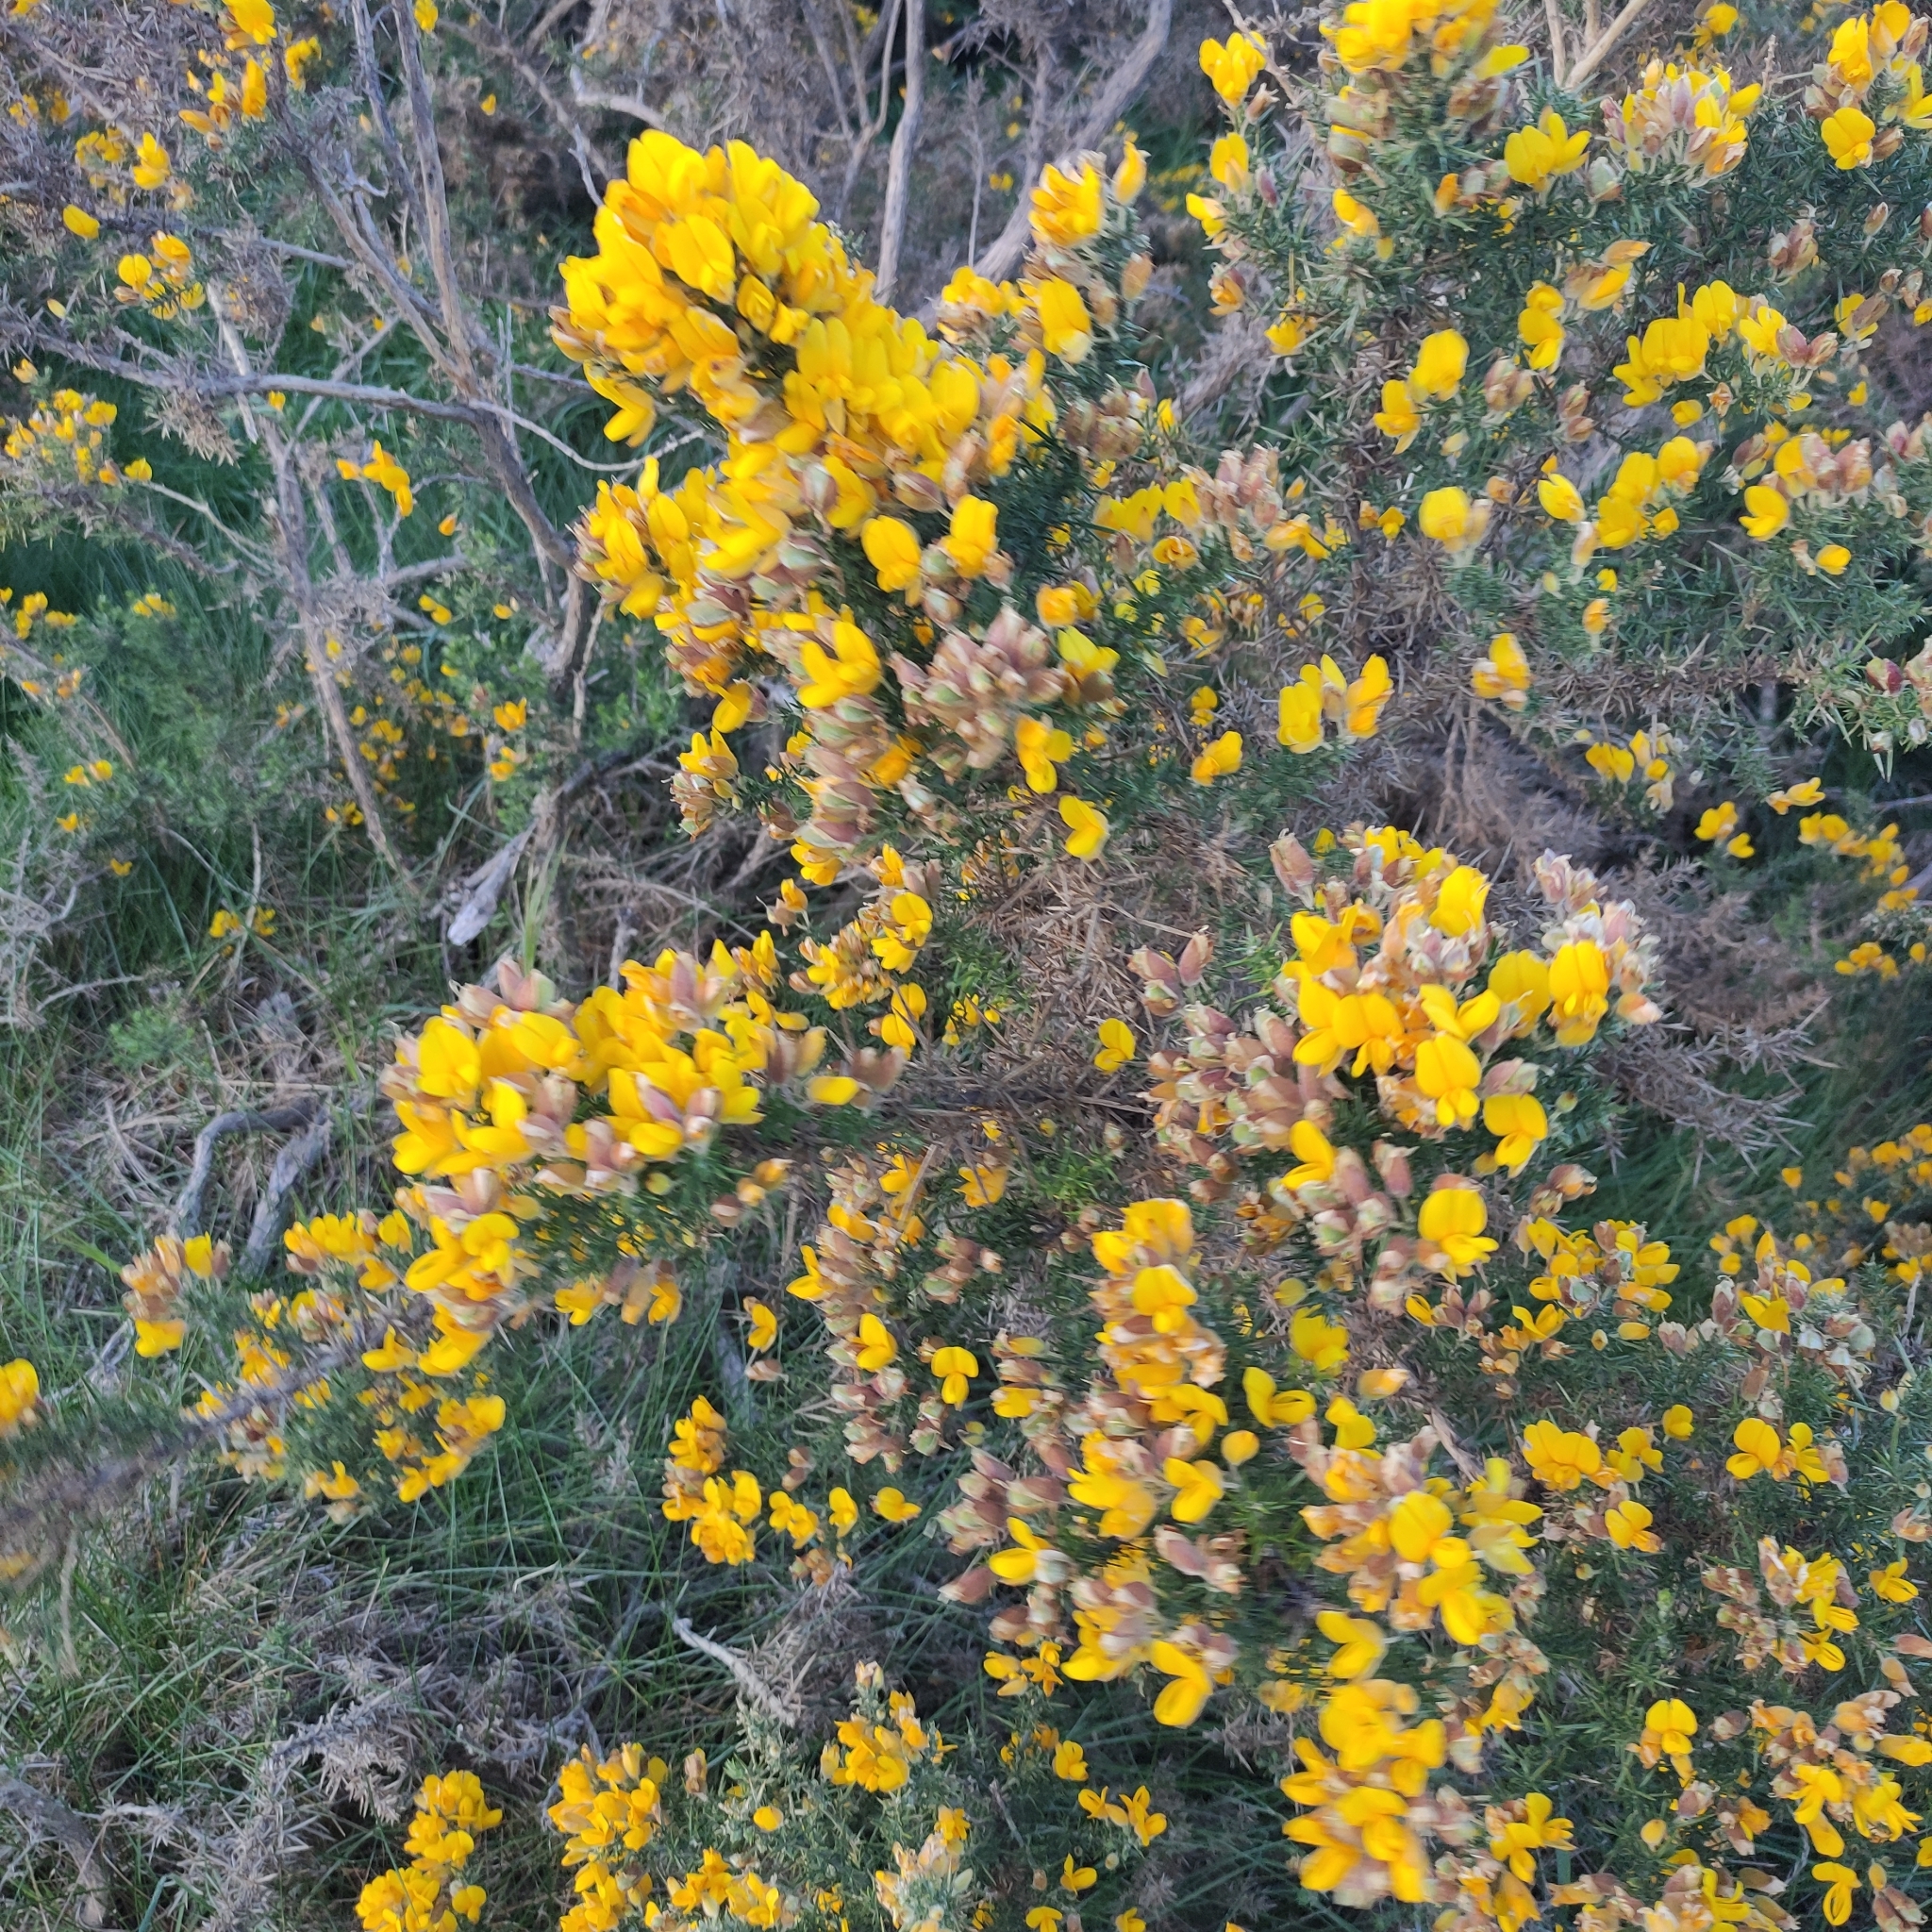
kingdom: Plantae
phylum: Tracheophyta
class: Magnoliopsida
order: Fabales
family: Fabaceae
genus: Ulex
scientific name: Ulex europaeus
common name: Common gorse
